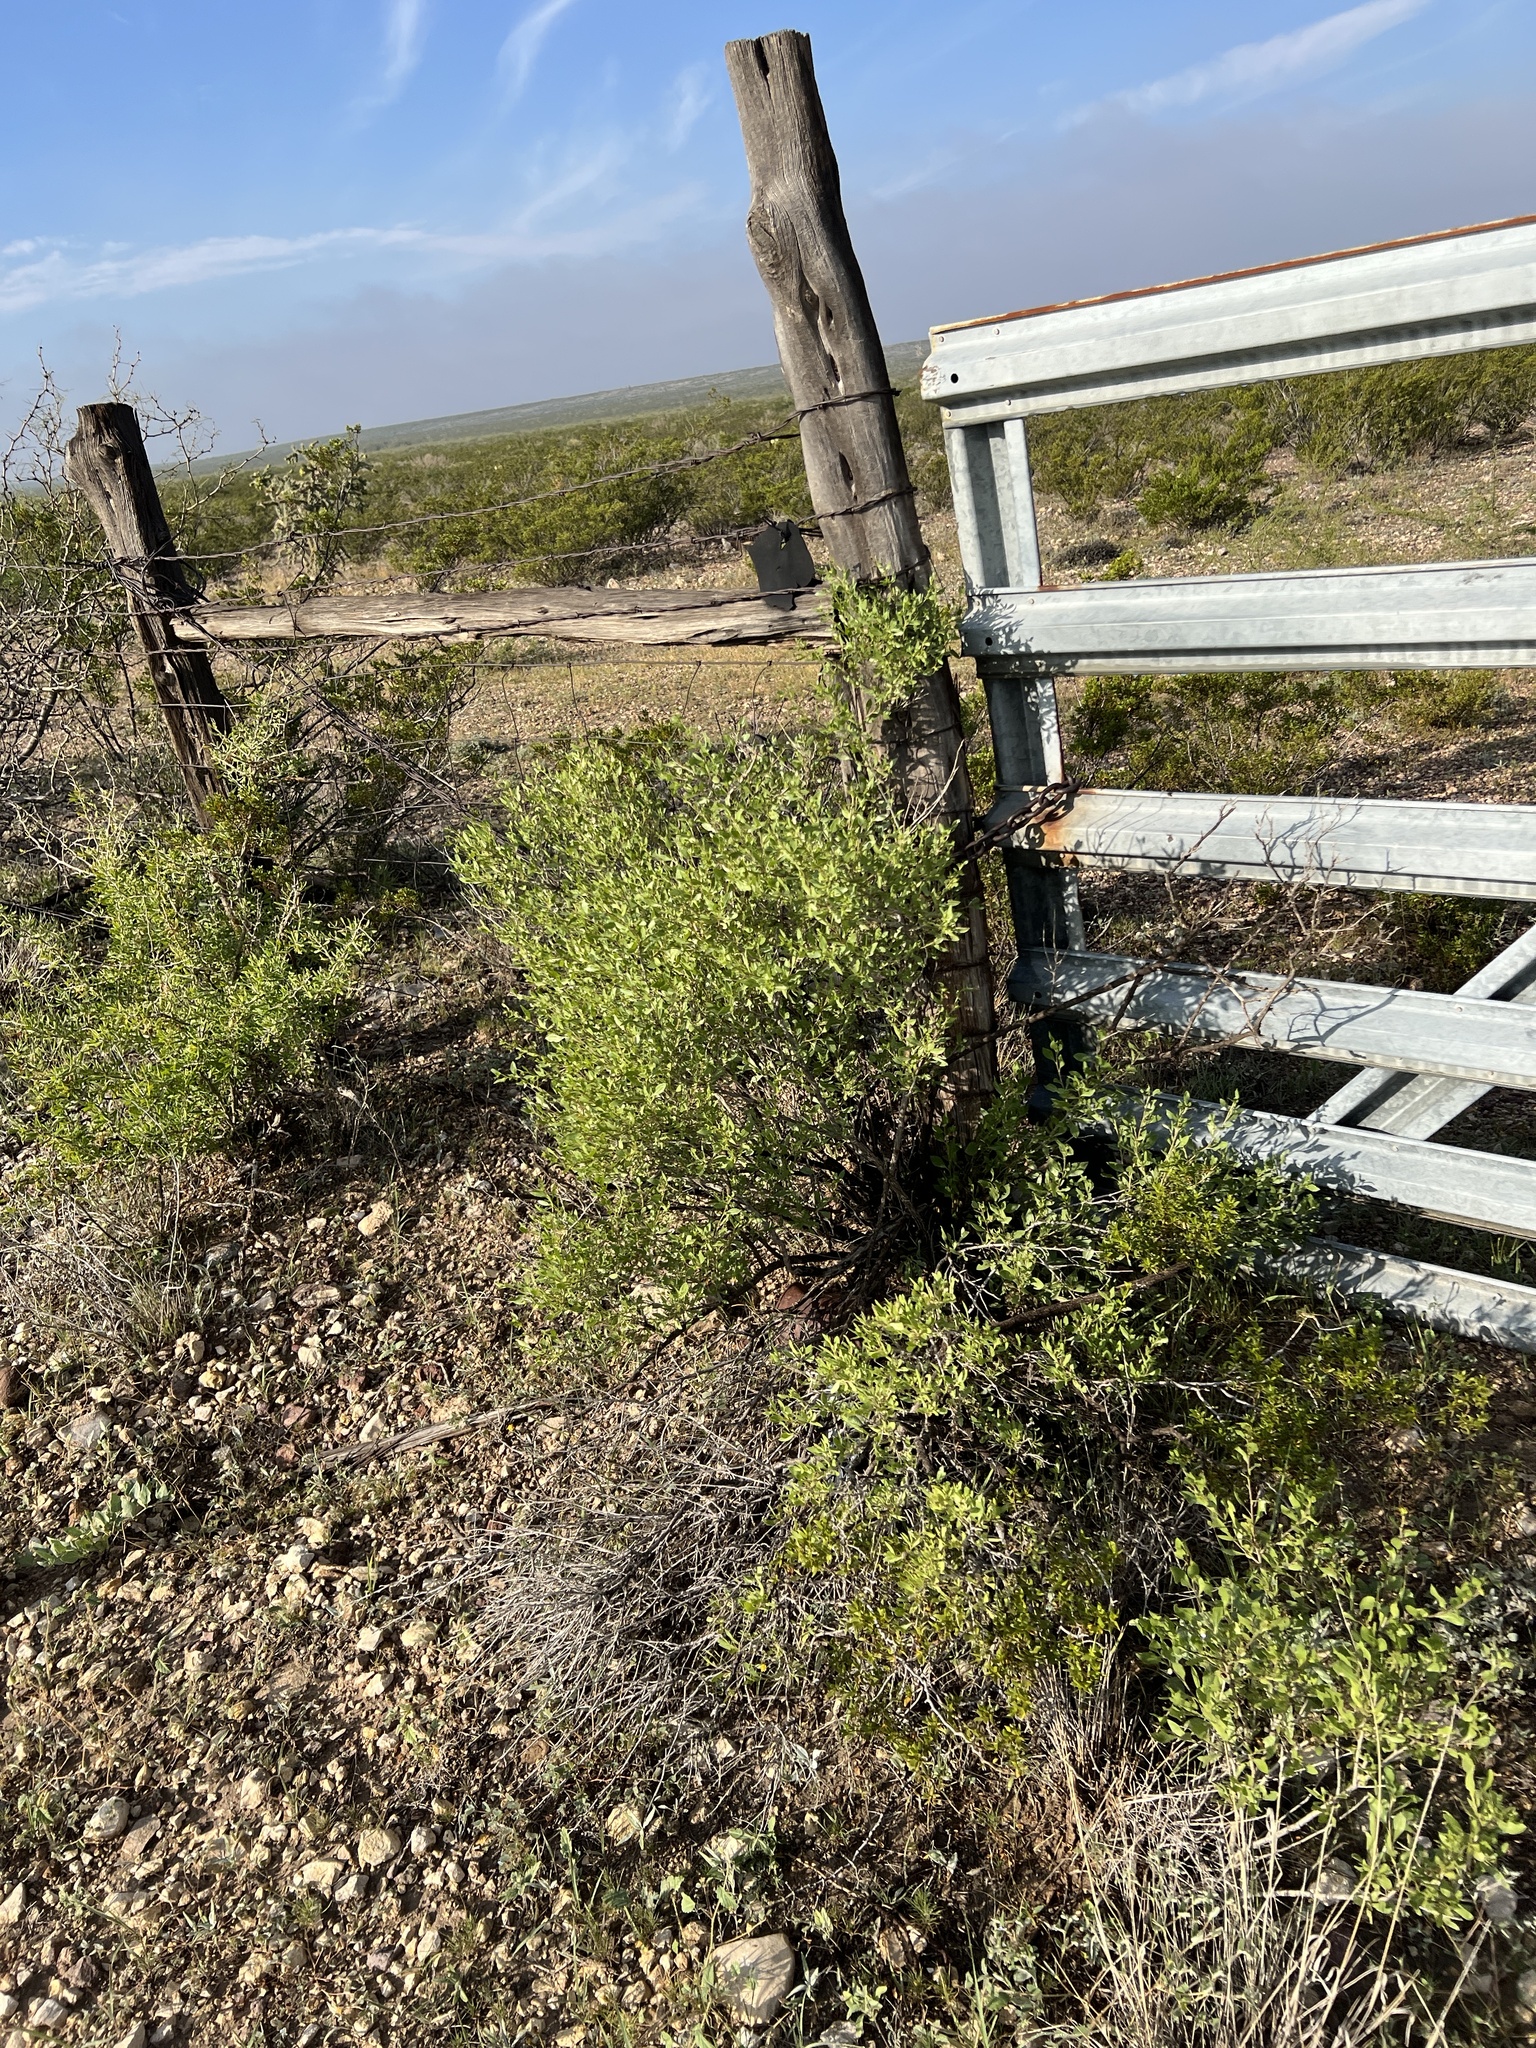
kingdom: Plantae
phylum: Tracheophyta
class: Magnoliopsida
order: Asterales
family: Asteraceae
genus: Flourensia
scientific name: Flourensia cernua
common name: Varnishbush
